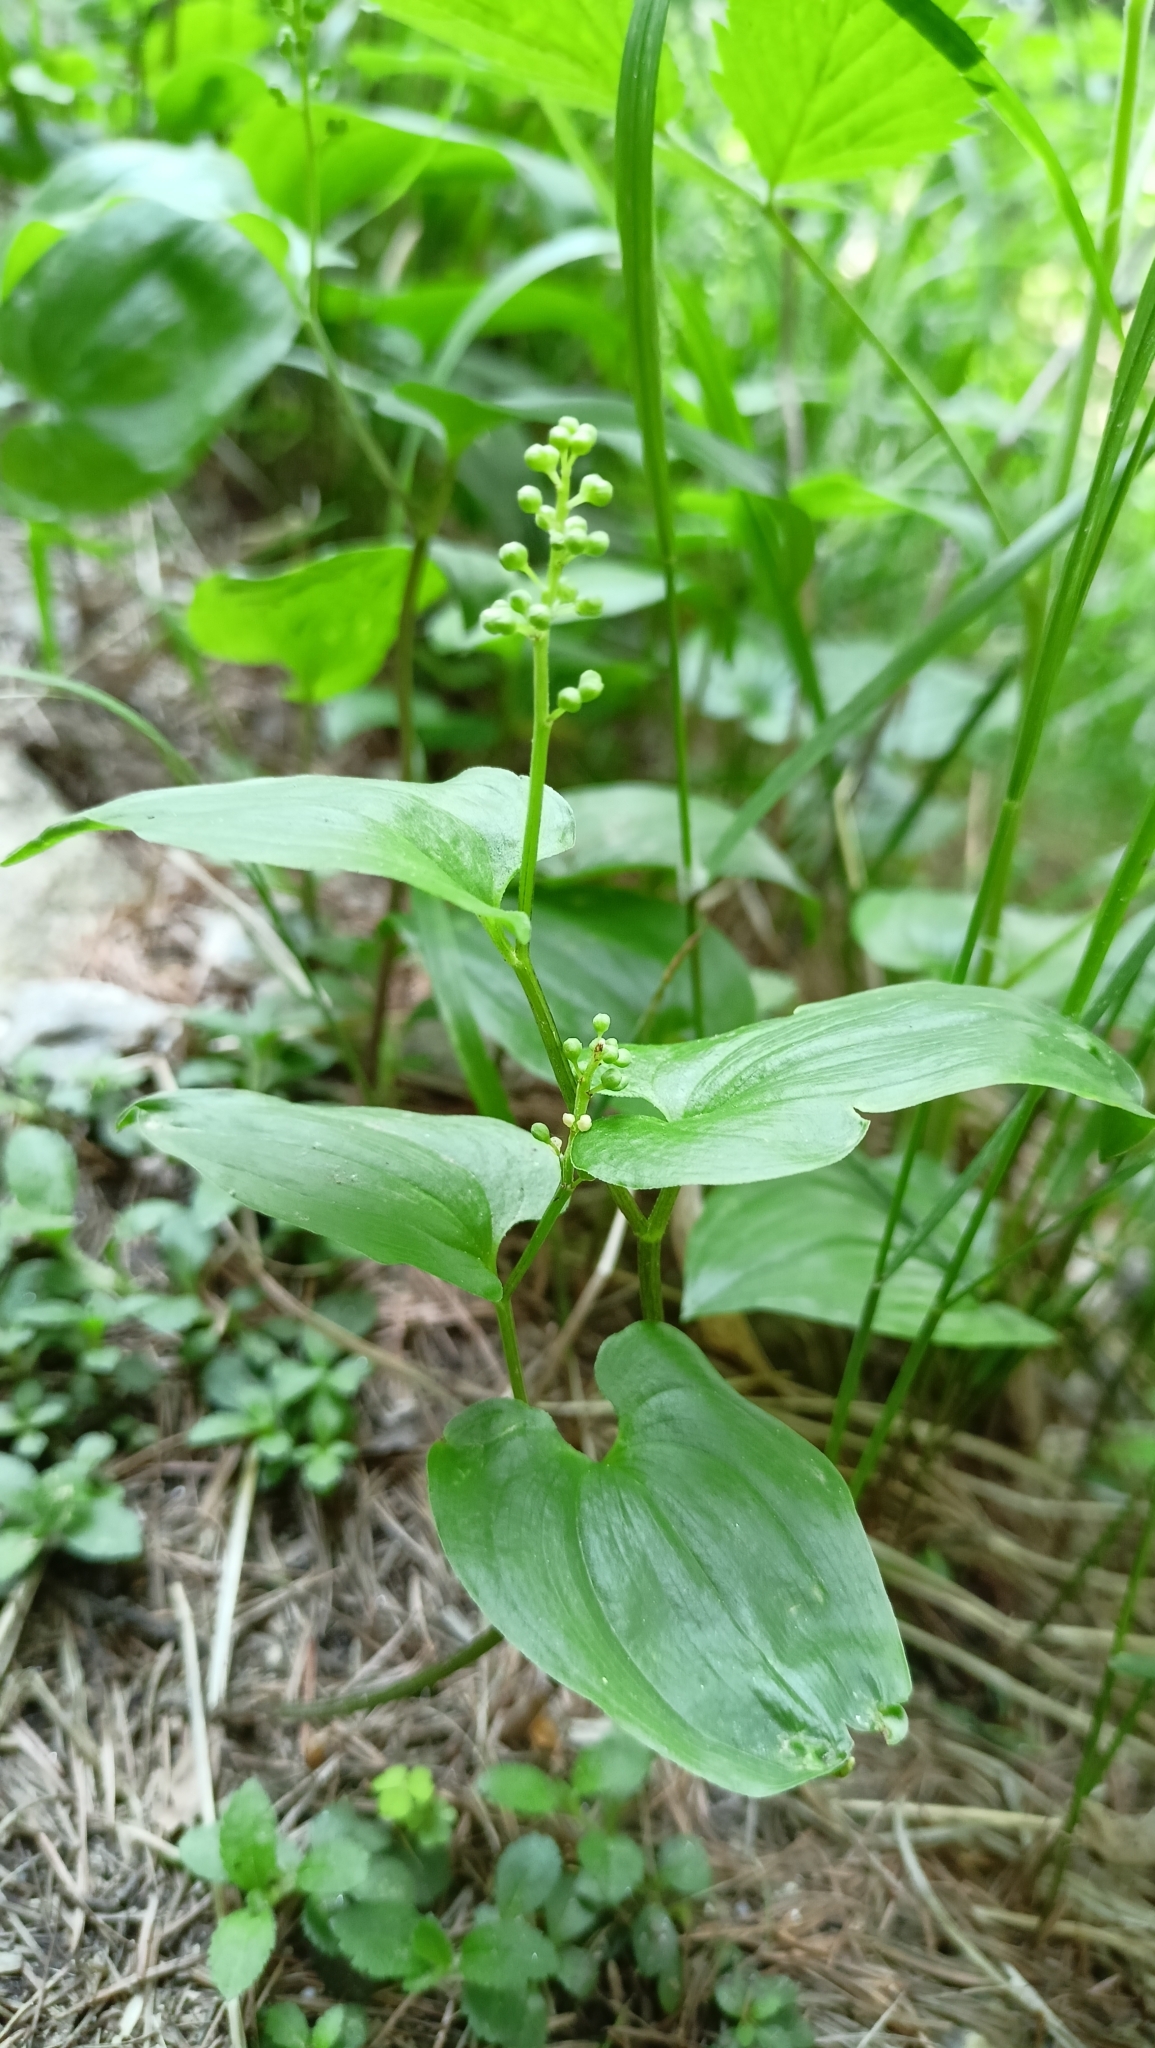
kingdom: Plantae
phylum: Tracheophyta
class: Liliopsida
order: Asparagales
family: Asparagaceae
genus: Maianthemum
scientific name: Maianthemum bifolium
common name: May lily
